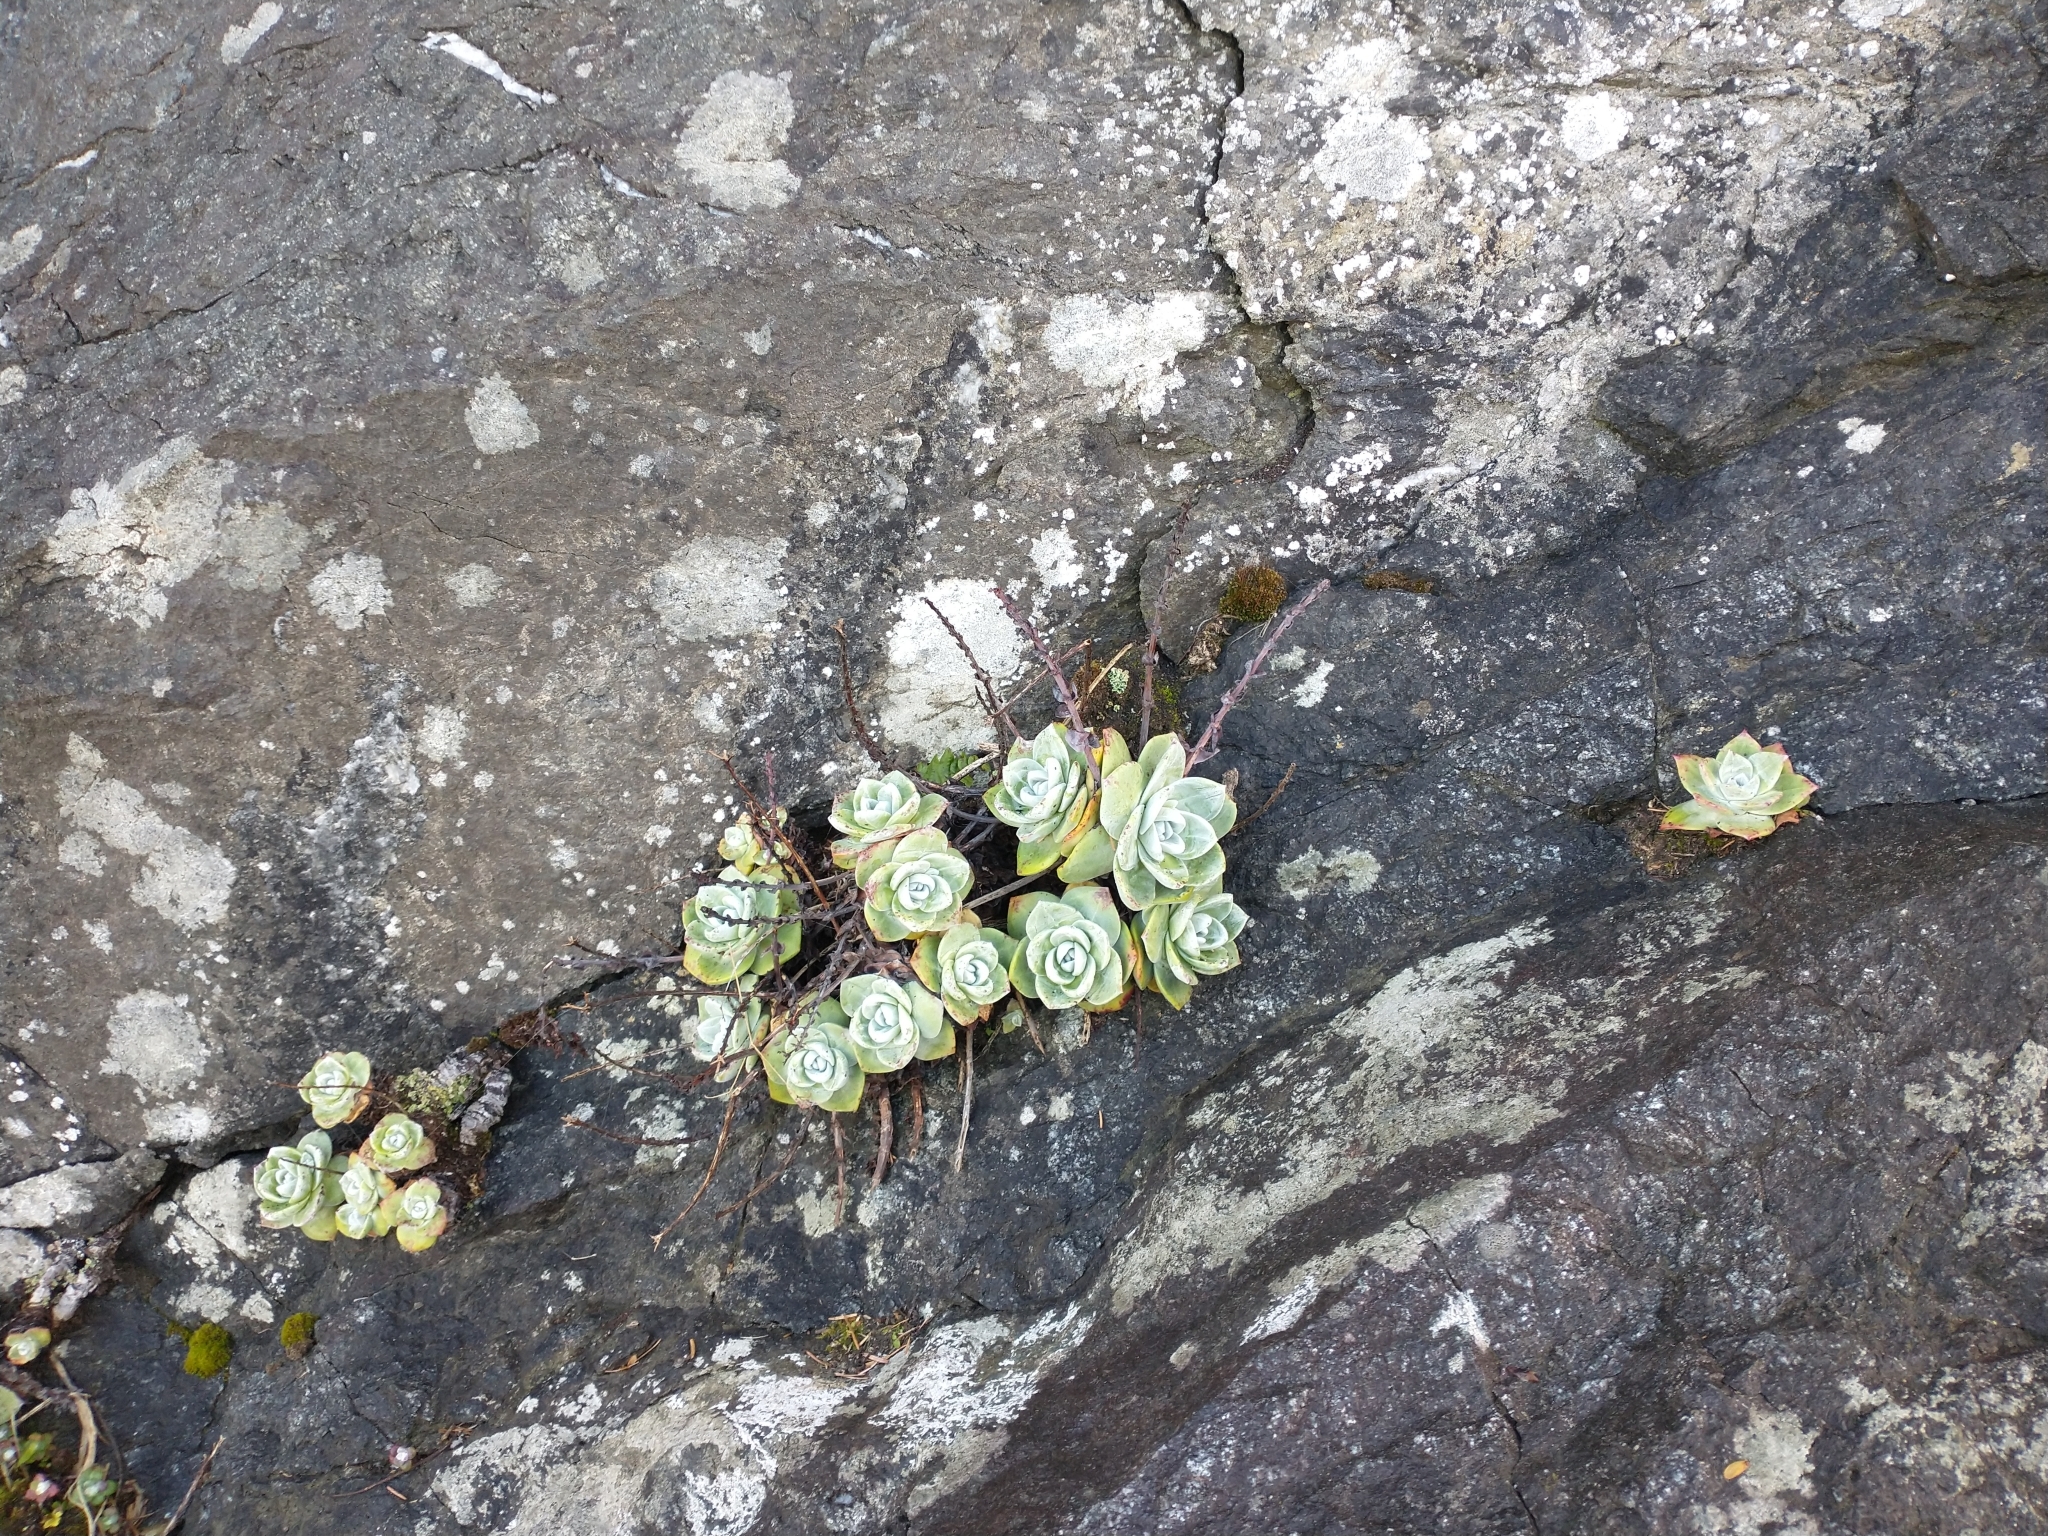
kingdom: Plantae
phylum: Tracheophyta
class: Magnoliopsida
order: Saxifragales
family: Crassulaceae
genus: Dudleya
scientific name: Dudleya farinosa
